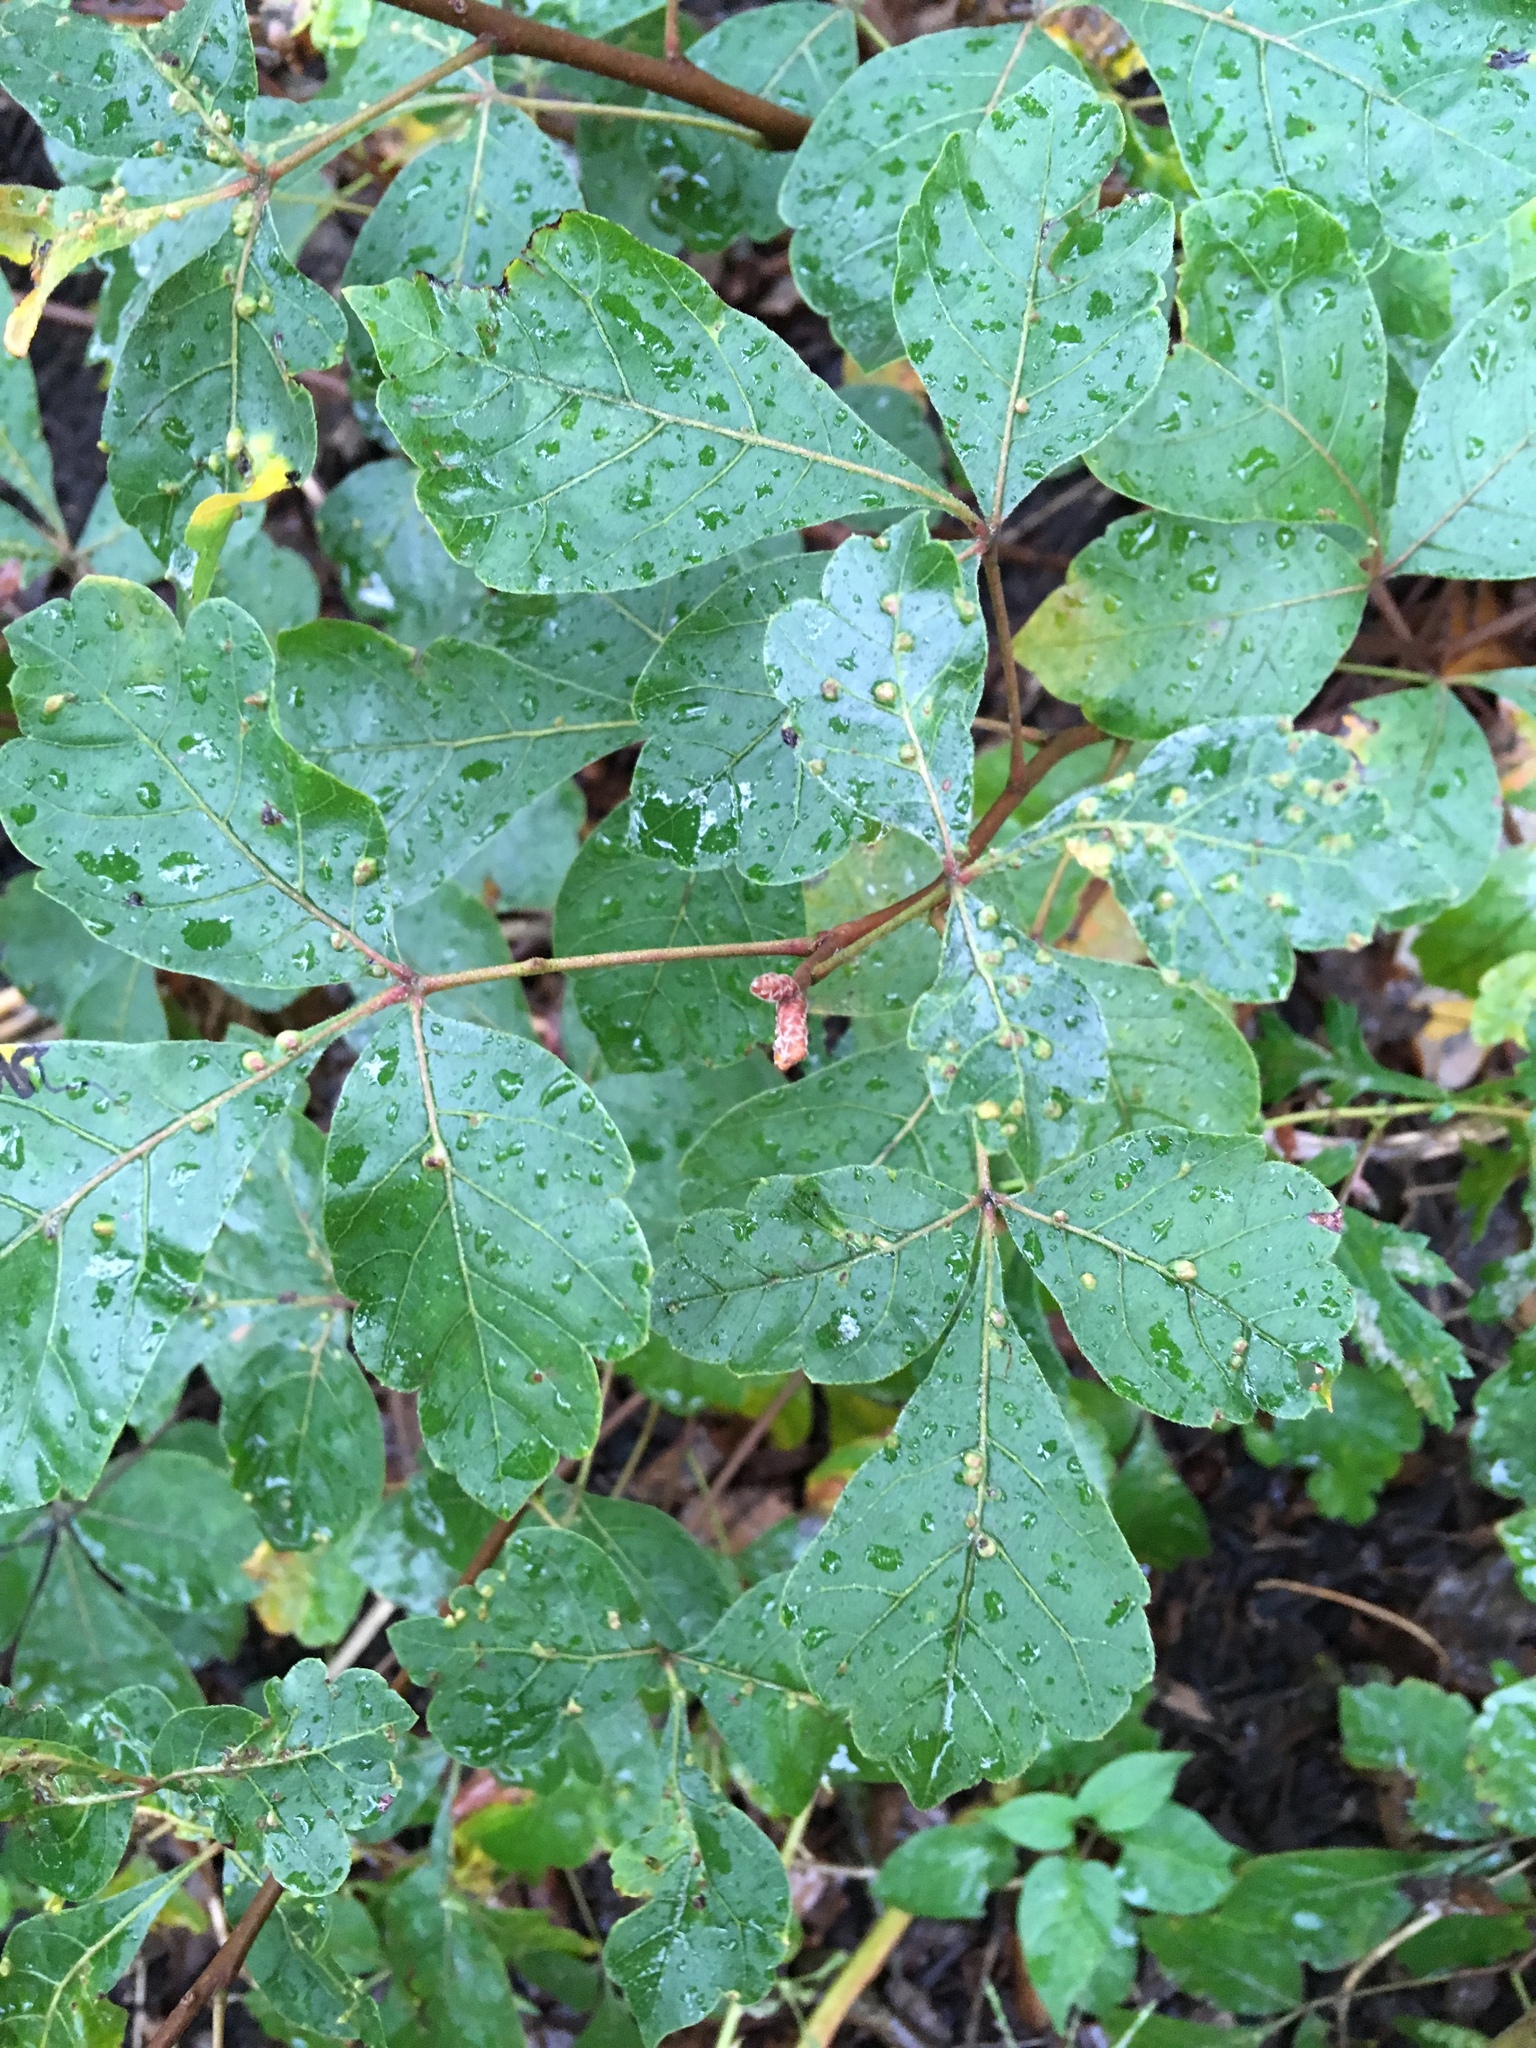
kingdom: Plantae
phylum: Tracheophyta
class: Magnoliopsida
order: Sapindales
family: Anacardiaceae
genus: Rhus
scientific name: Rhus aromatica
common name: Aromatic sumac
